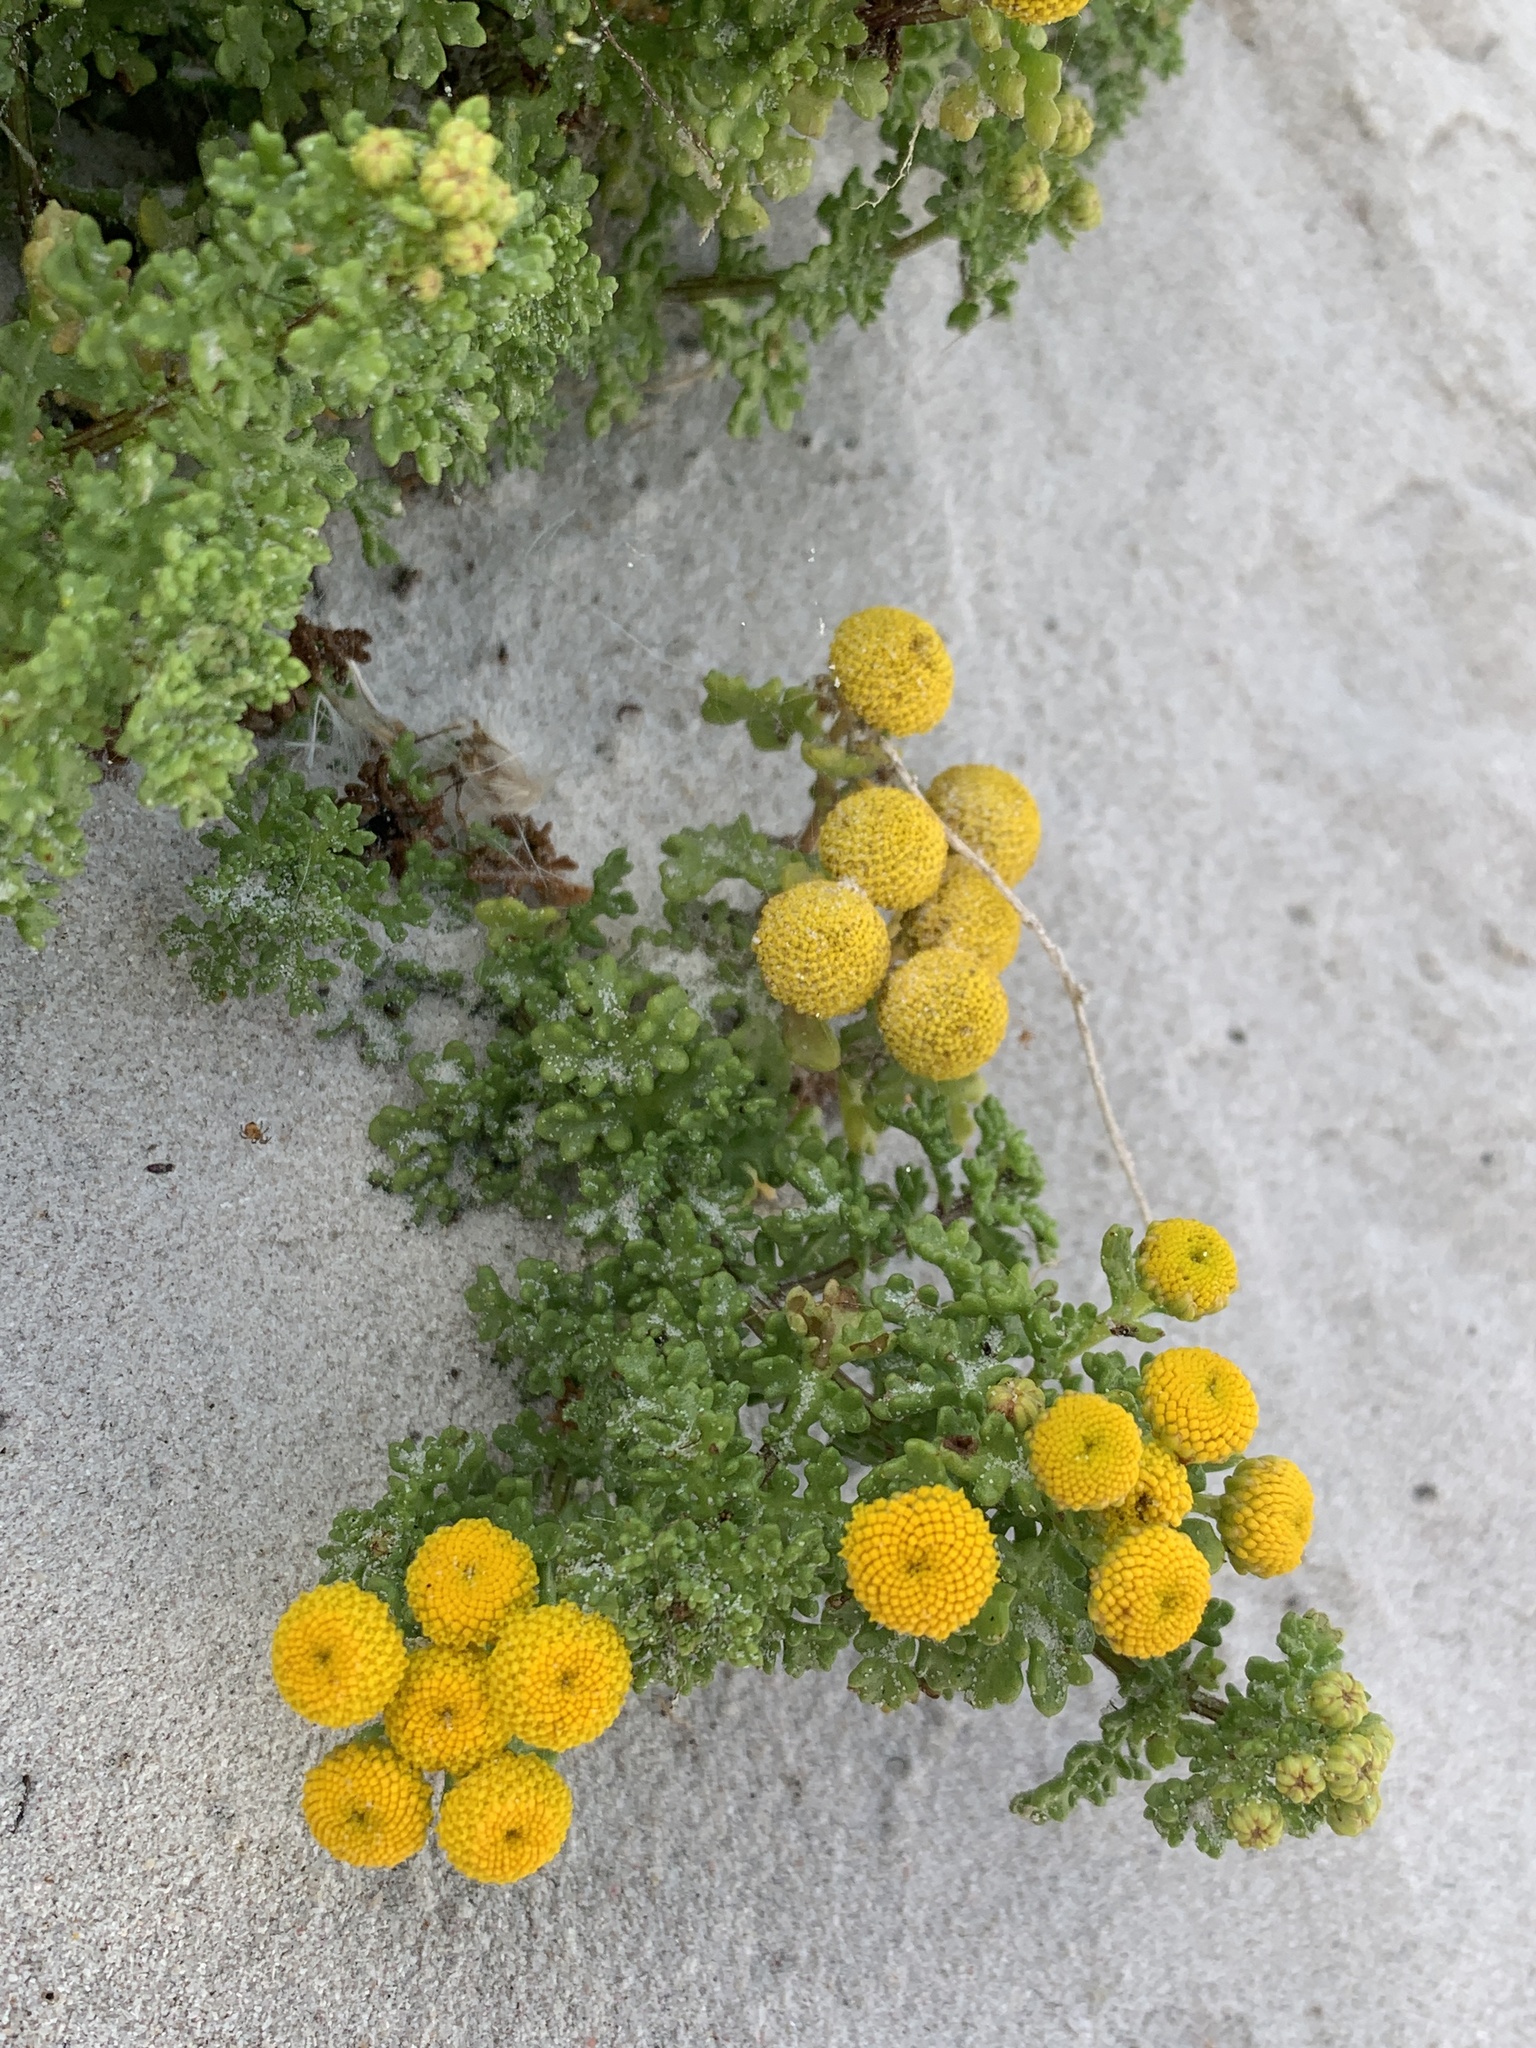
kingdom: Plantae
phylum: Tracheophyta
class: Magnoliopsida
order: Asterales
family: Asteraceae
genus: Oncosiphon
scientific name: Oncosiphon sabulosus
